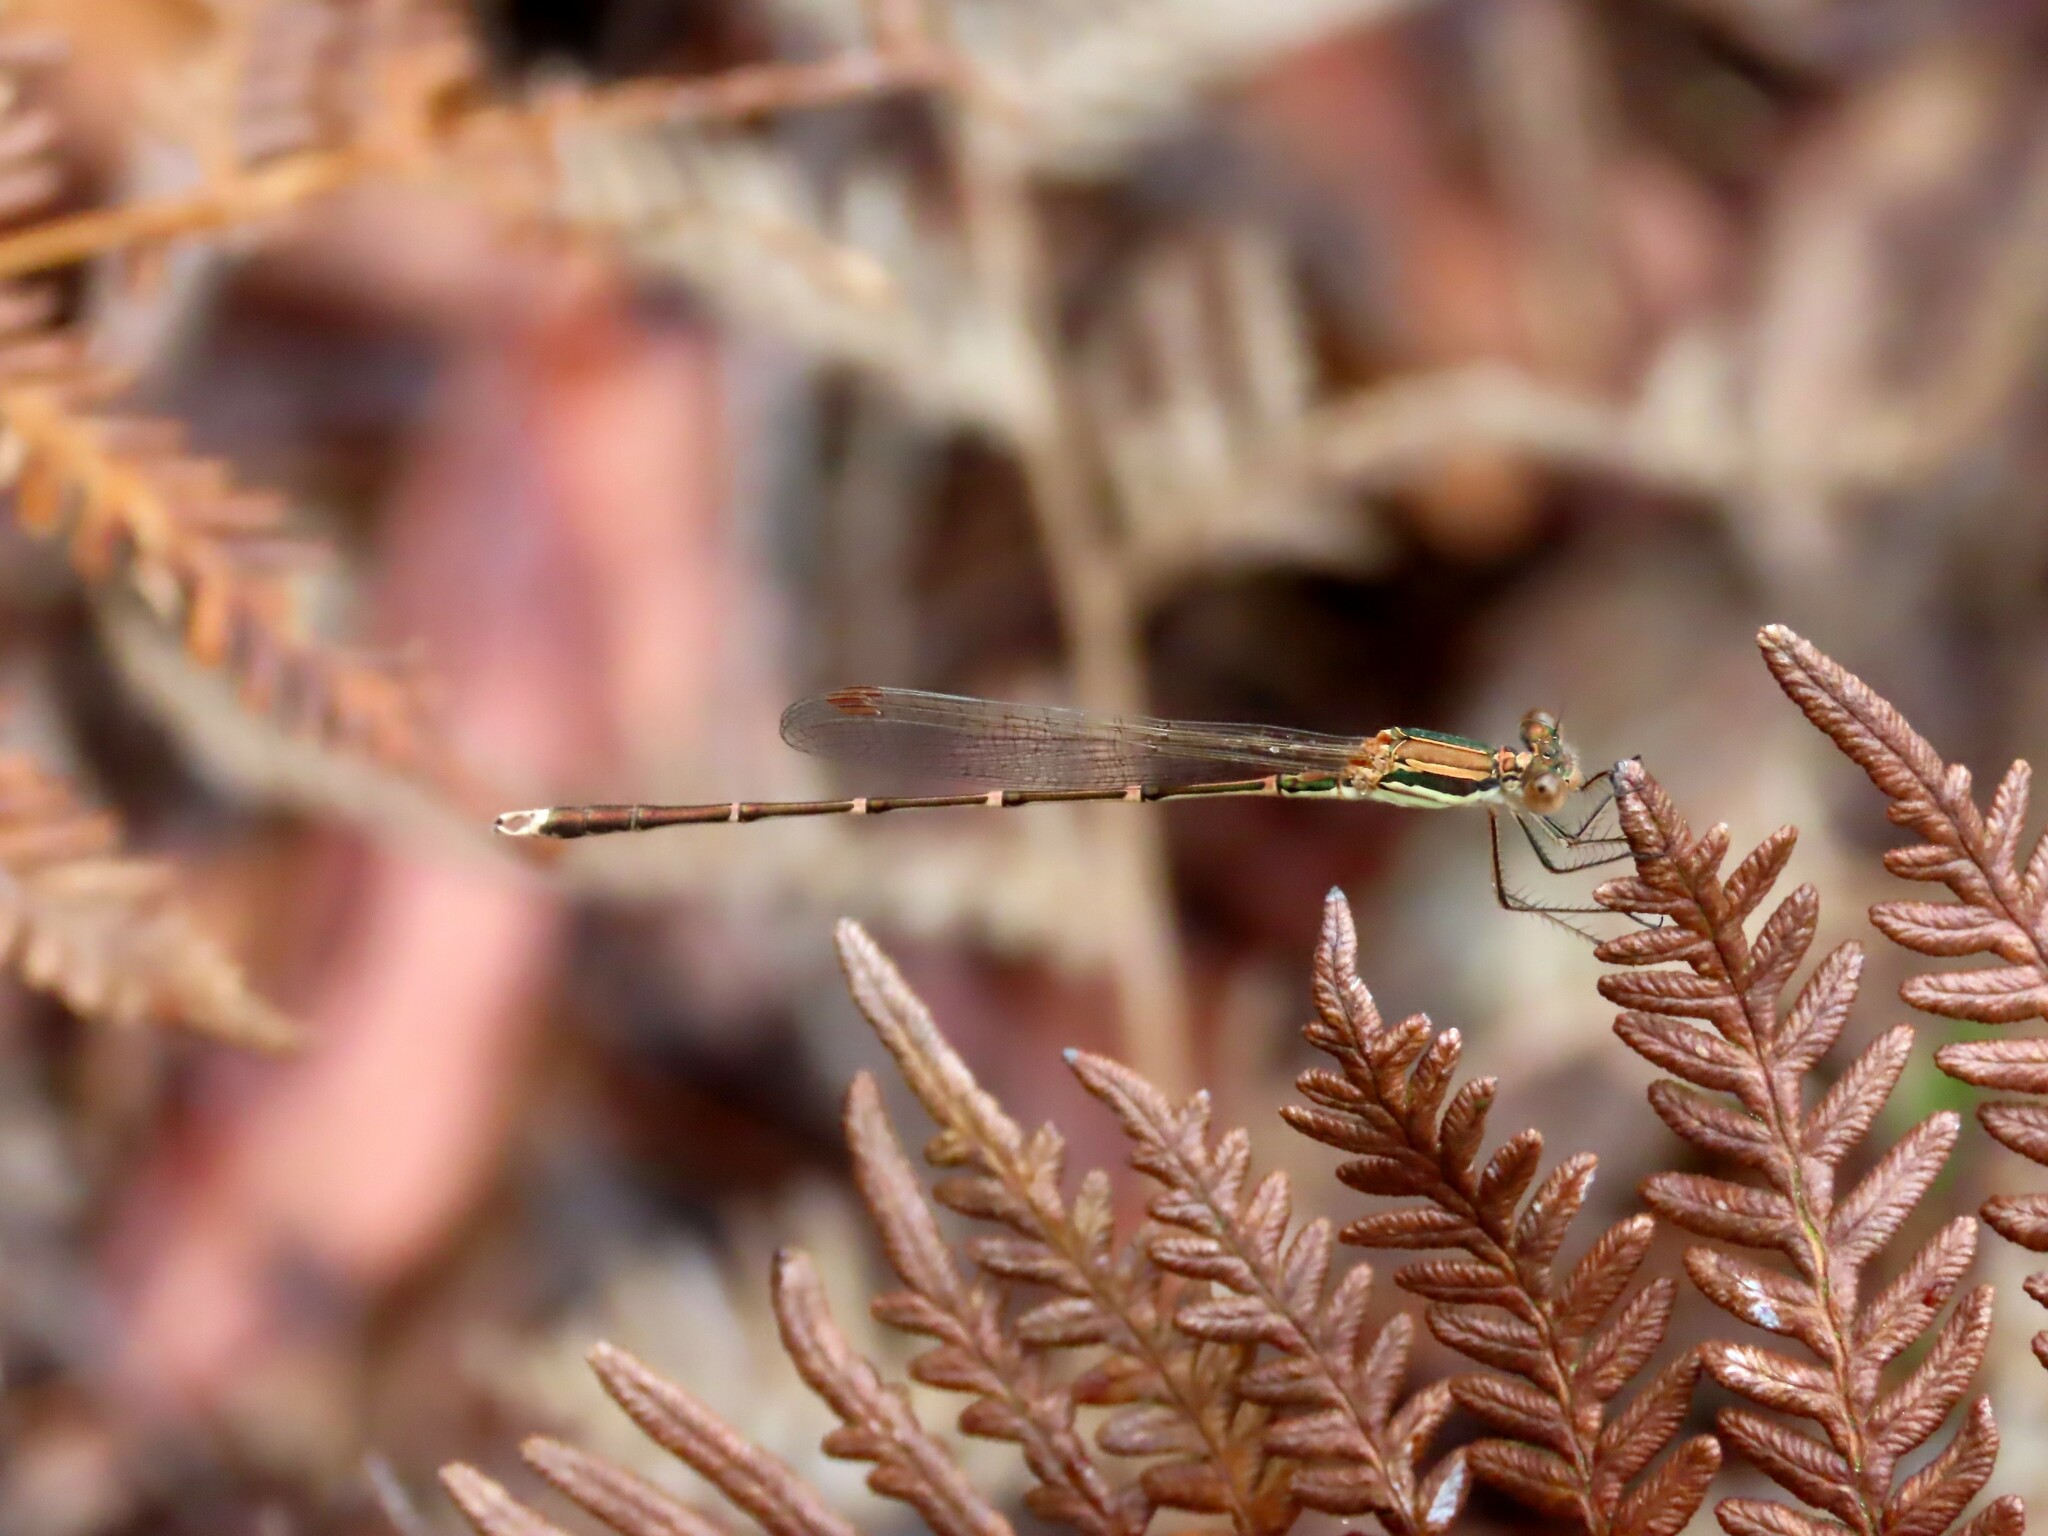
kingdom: Animalia
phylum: Arthropoda
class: Insecta
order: Odonata
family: Lestidae
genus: Austrolestes
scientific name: Austrolestes analis
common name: Slender ringtail
